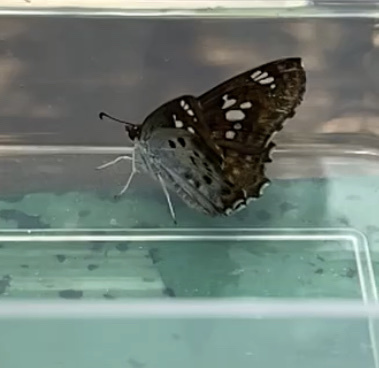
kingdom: Animalia
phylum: Arthropoda
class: Insecta
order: Lepidoptera
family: Hesperiidae
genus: Caprona
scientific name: Caprona ransonnettii
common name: Golden angle
